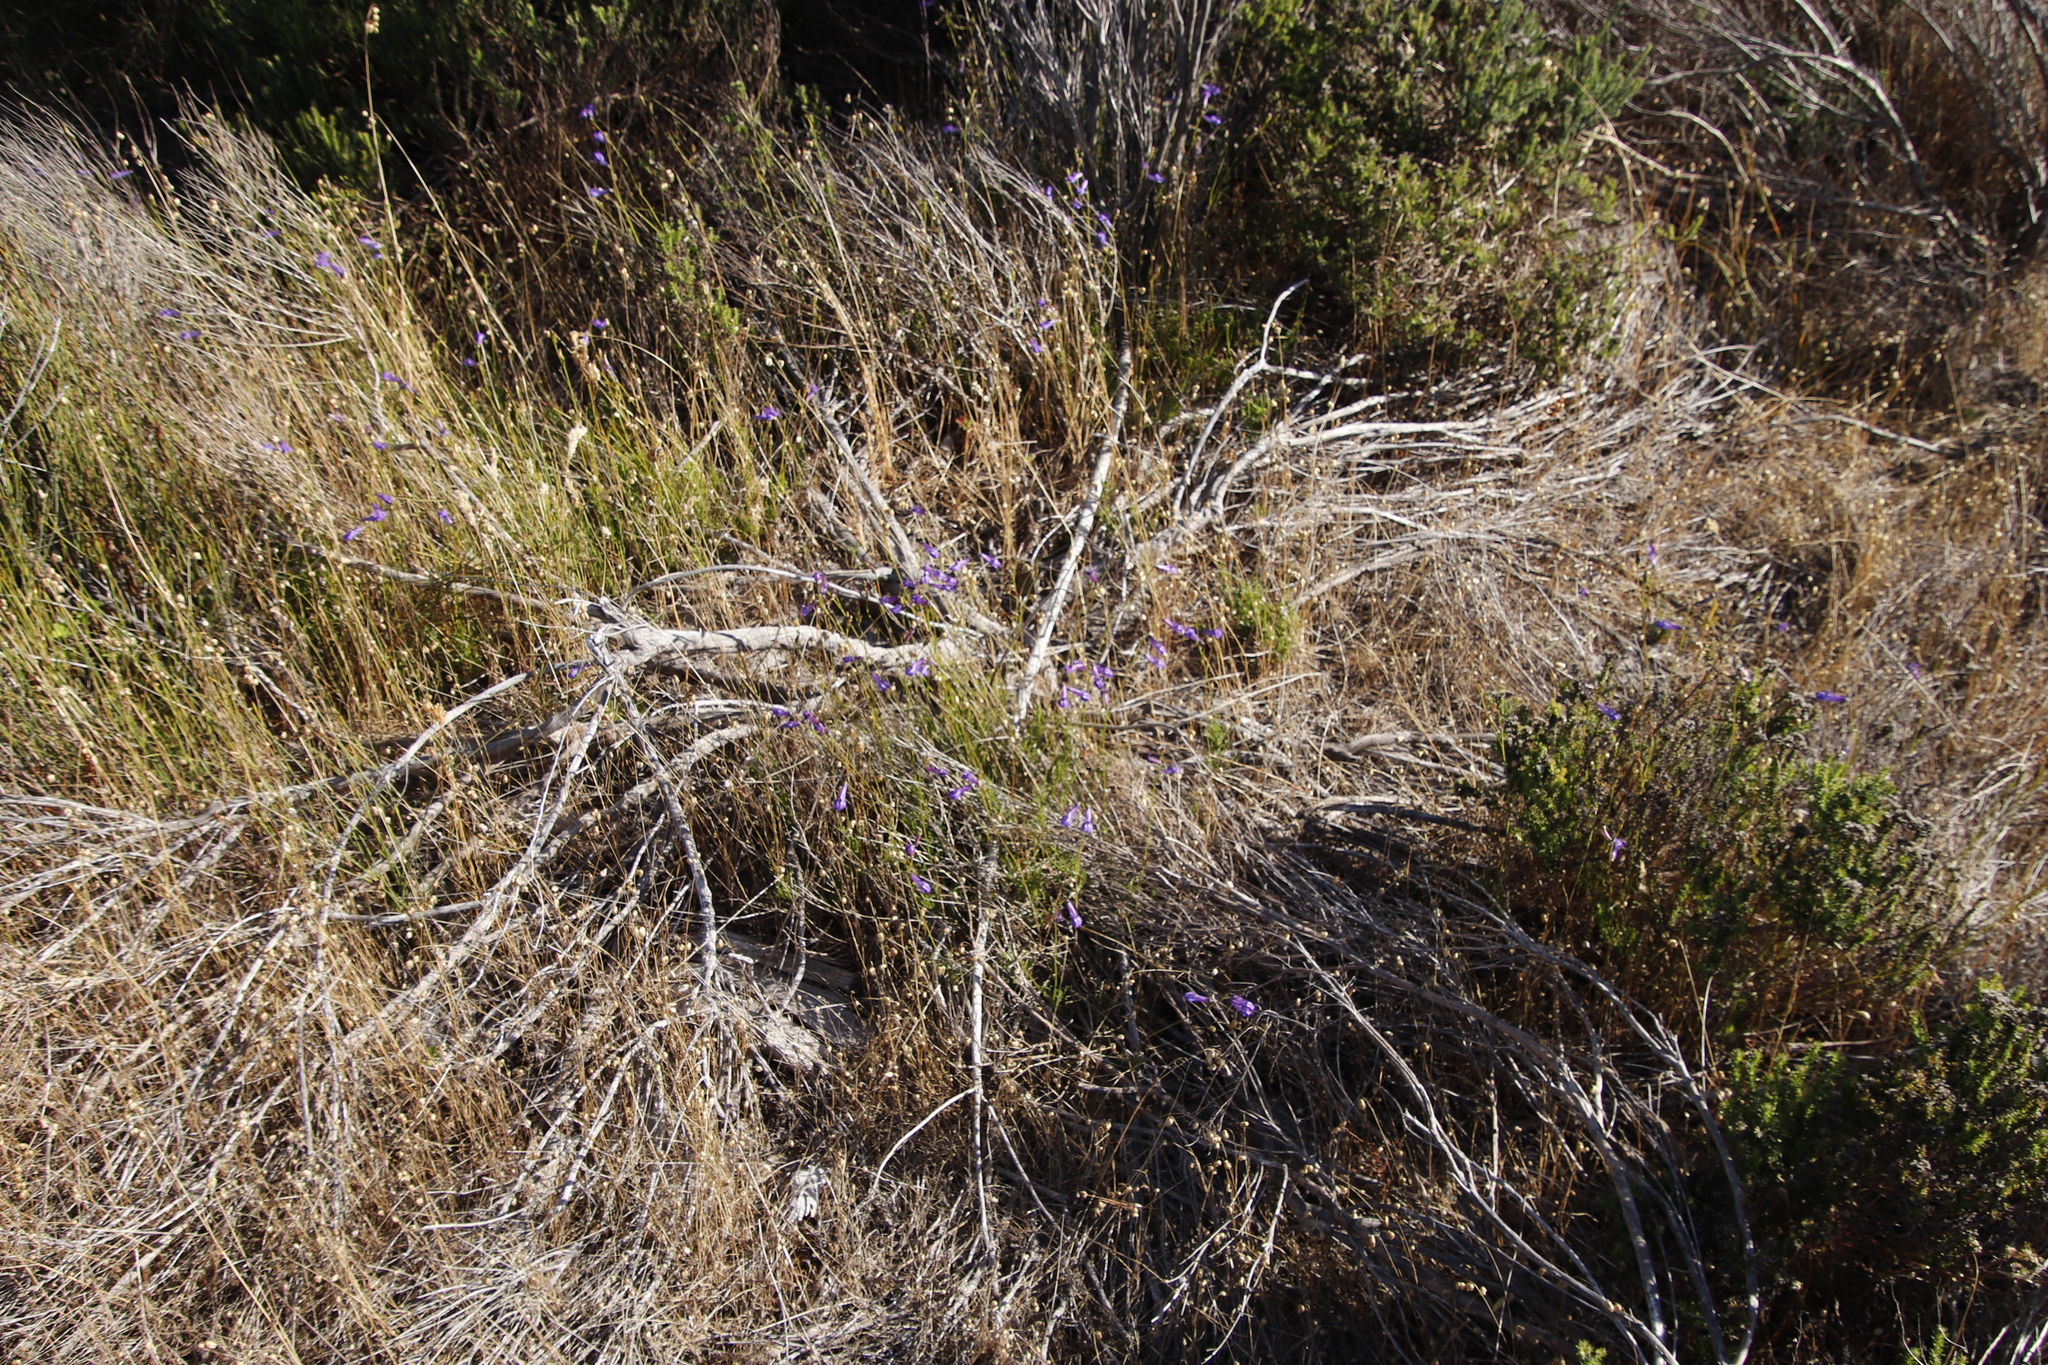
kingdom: Plantae
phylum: Tracheophyta
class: Magnoliopsida
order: Asterales
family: Campanulaceae
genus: Lobelia
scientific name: Lobelia coronopifolia
